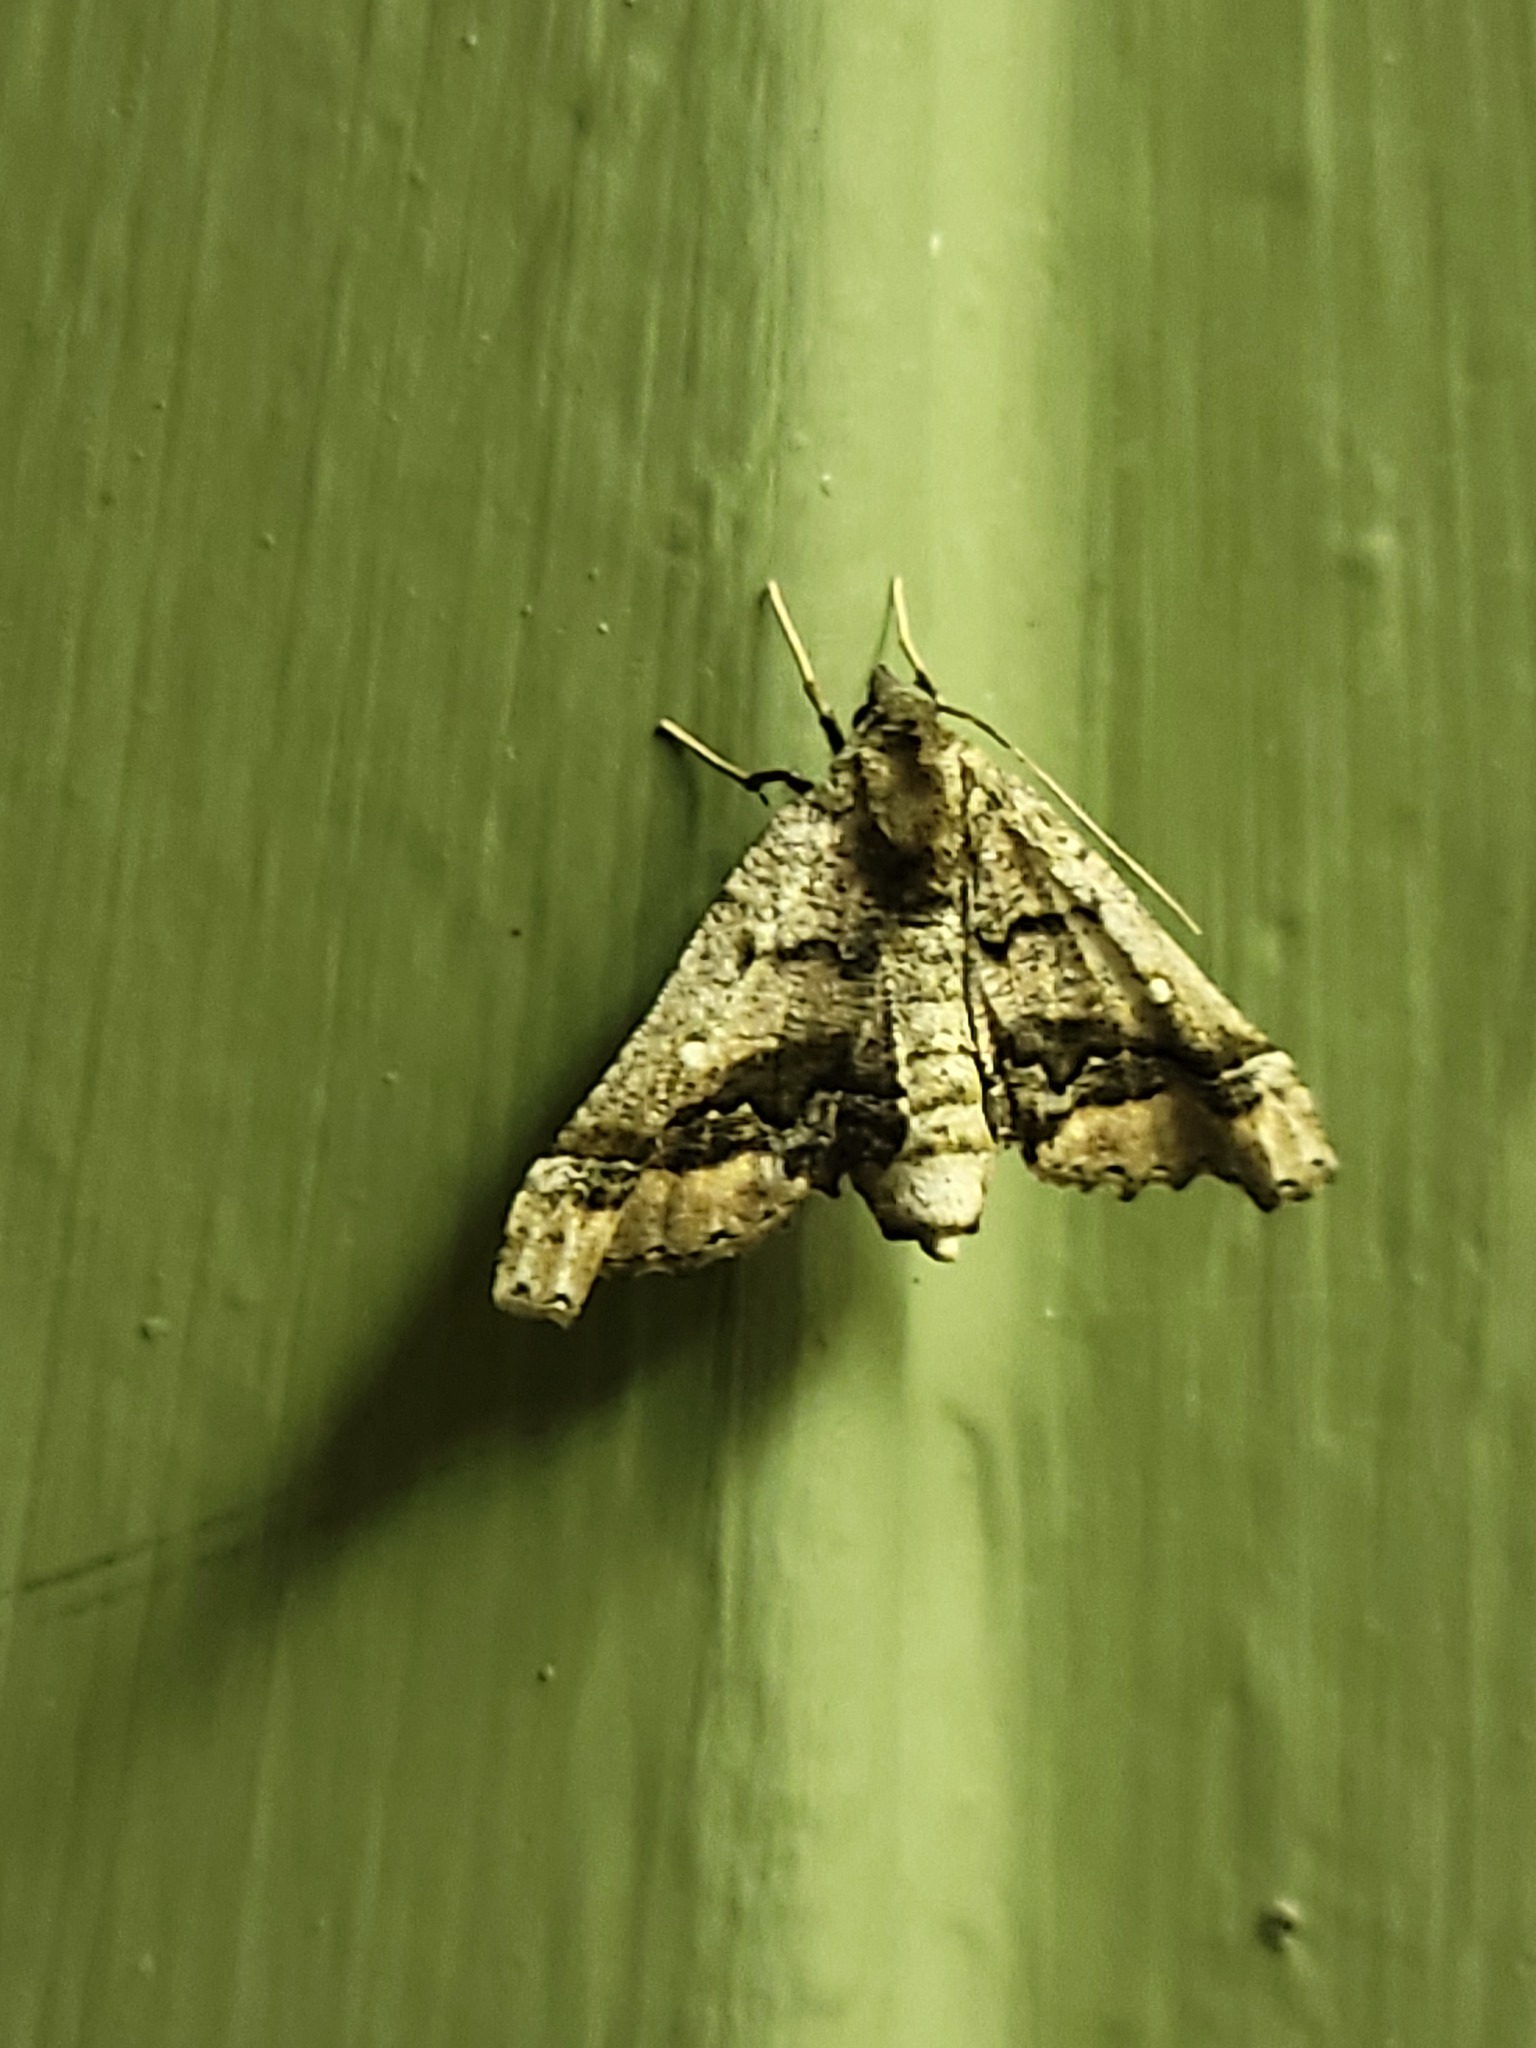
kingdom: Animalia
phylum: Arthropoda
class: Insecta
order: Lepidoptera
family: Geometridae
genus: Pero
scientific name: Pero meskaria
